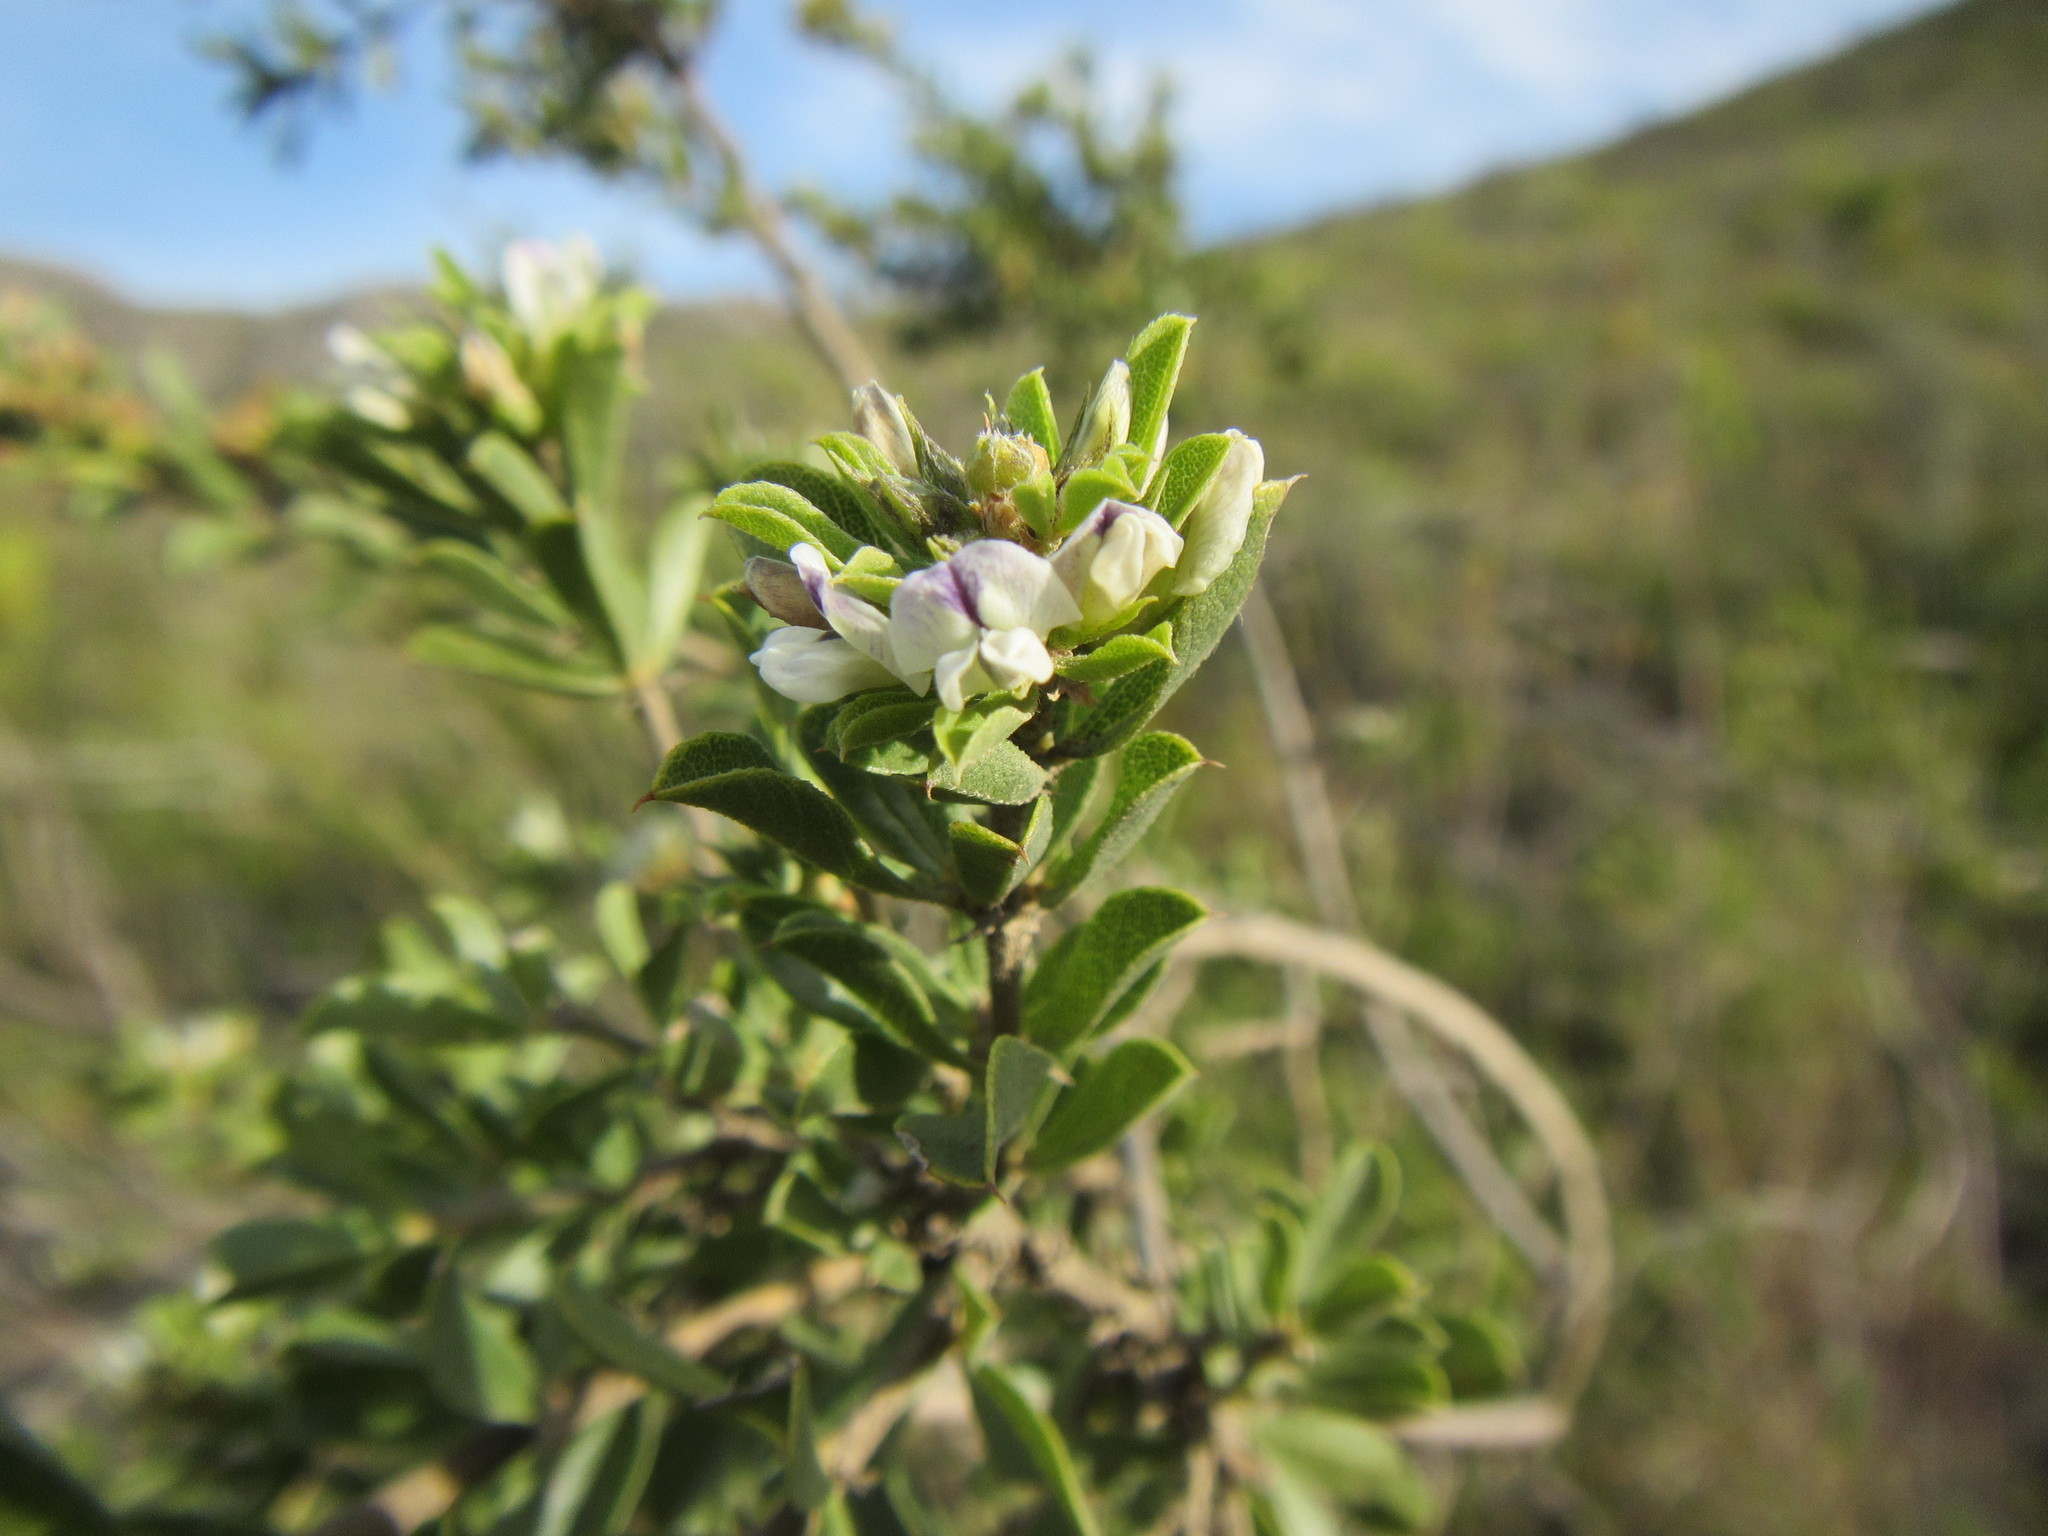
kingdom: Plantae
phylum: Tracheophyta
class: Magnoliopsida
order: Fabales
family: Fabaceae
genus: Psoralea
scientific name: Psoralea prodiens
